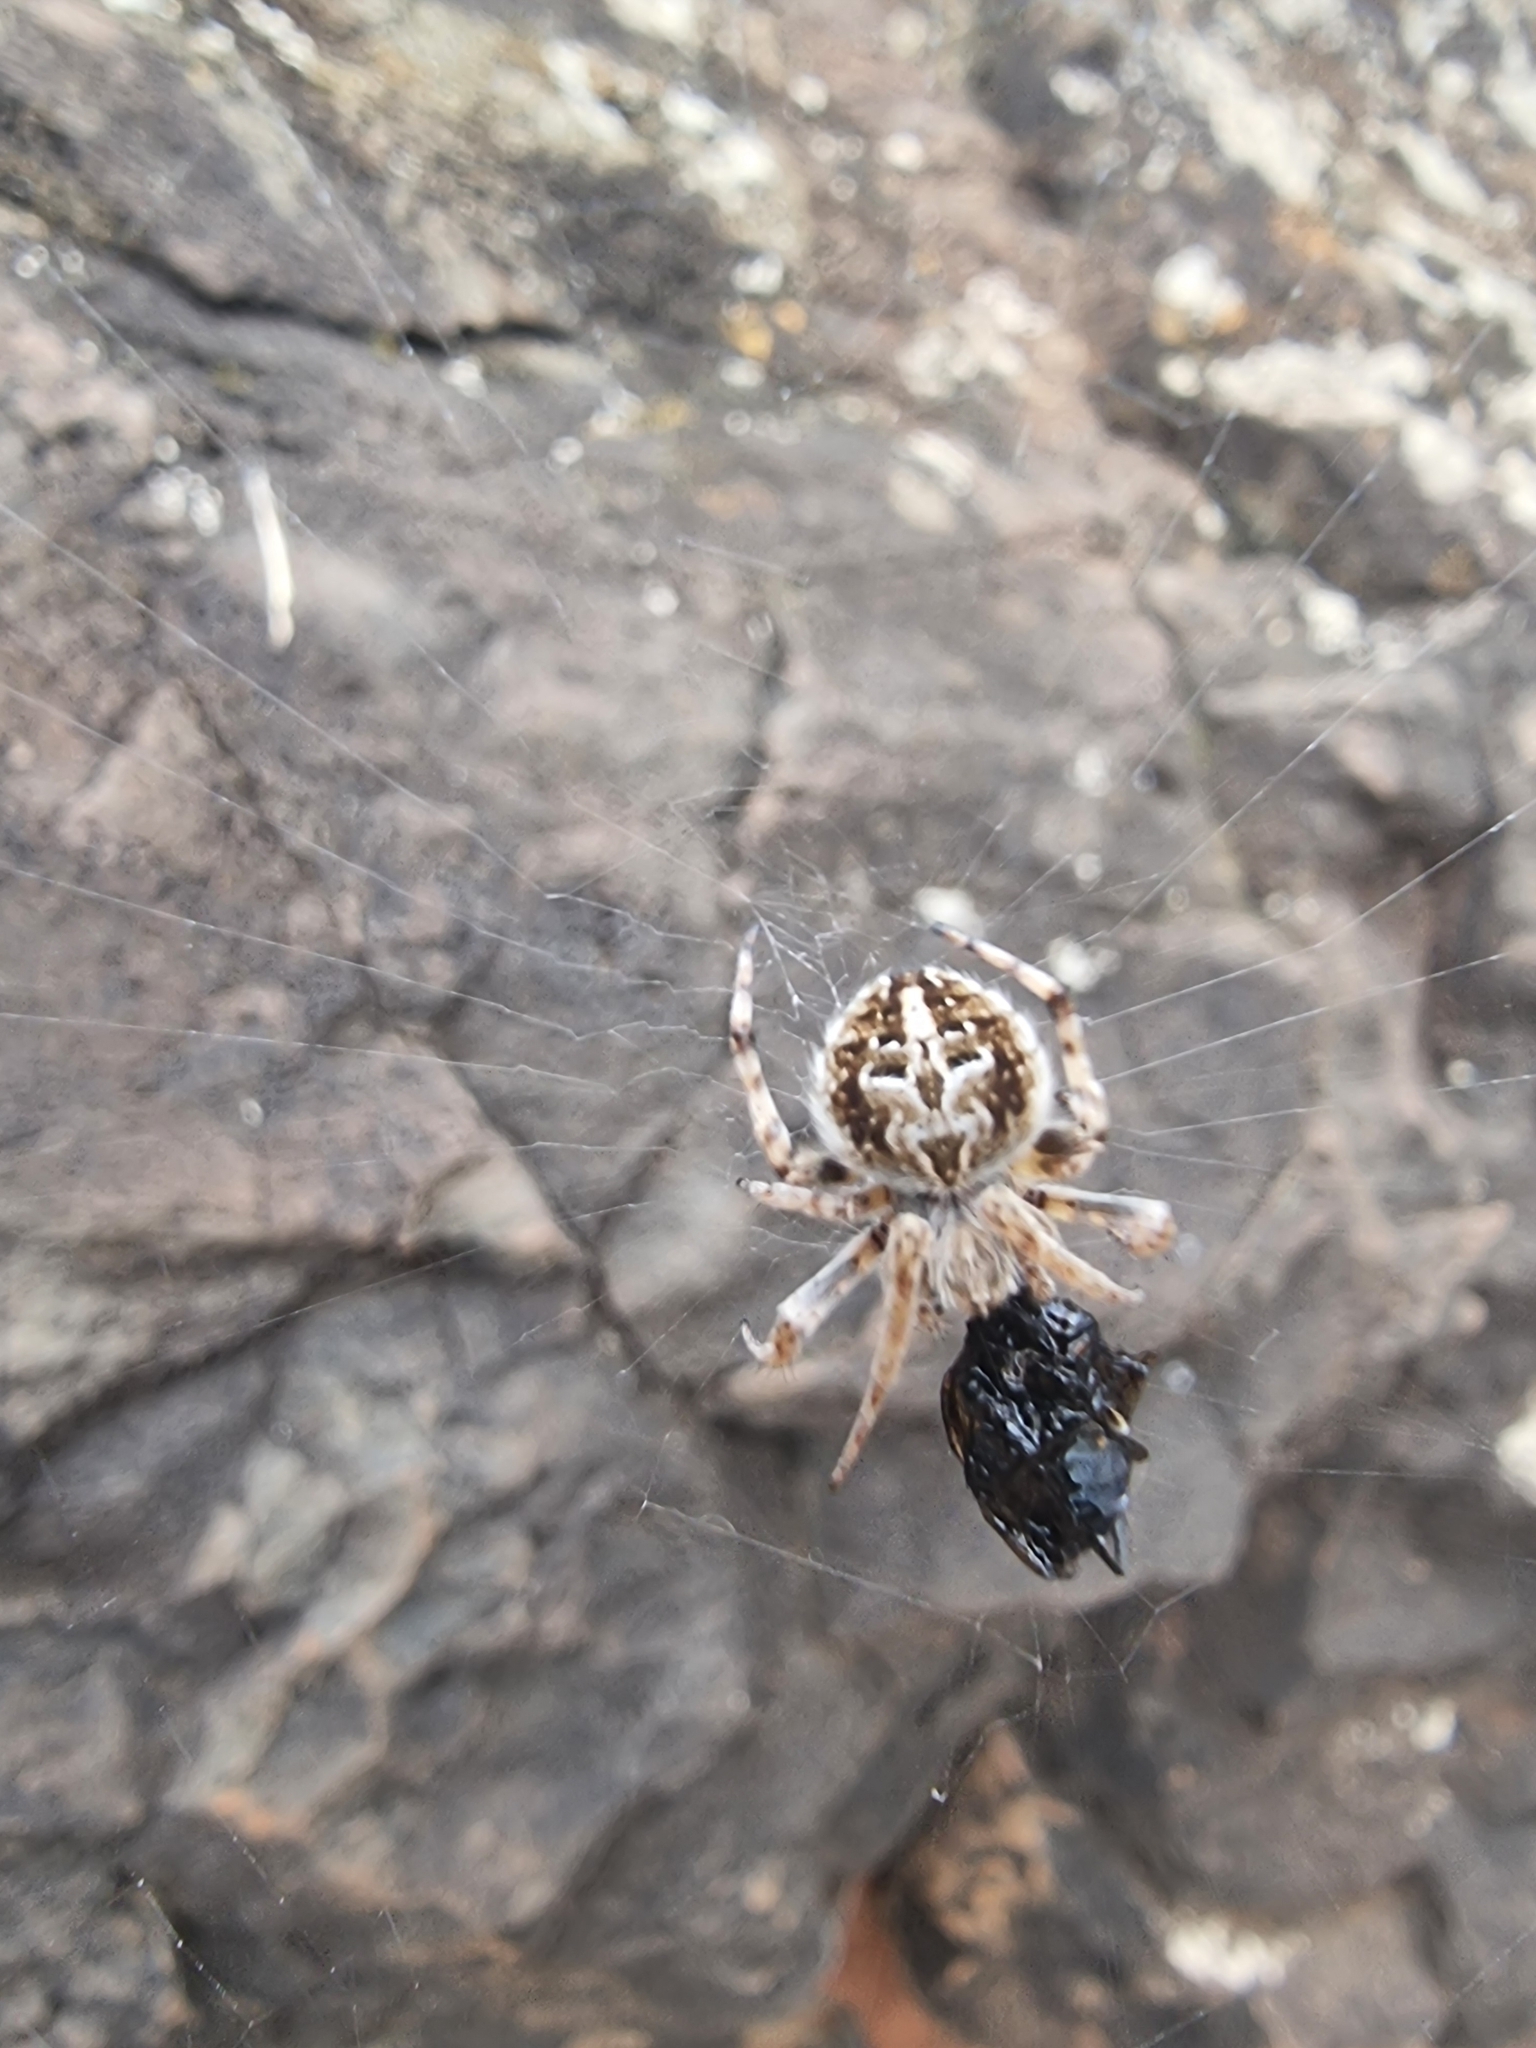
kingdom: Animalia
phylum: Arthropoda
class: Arachnida
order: Araneae
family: Araneidae
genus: Agalenatea
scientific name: Agalenatea redii
